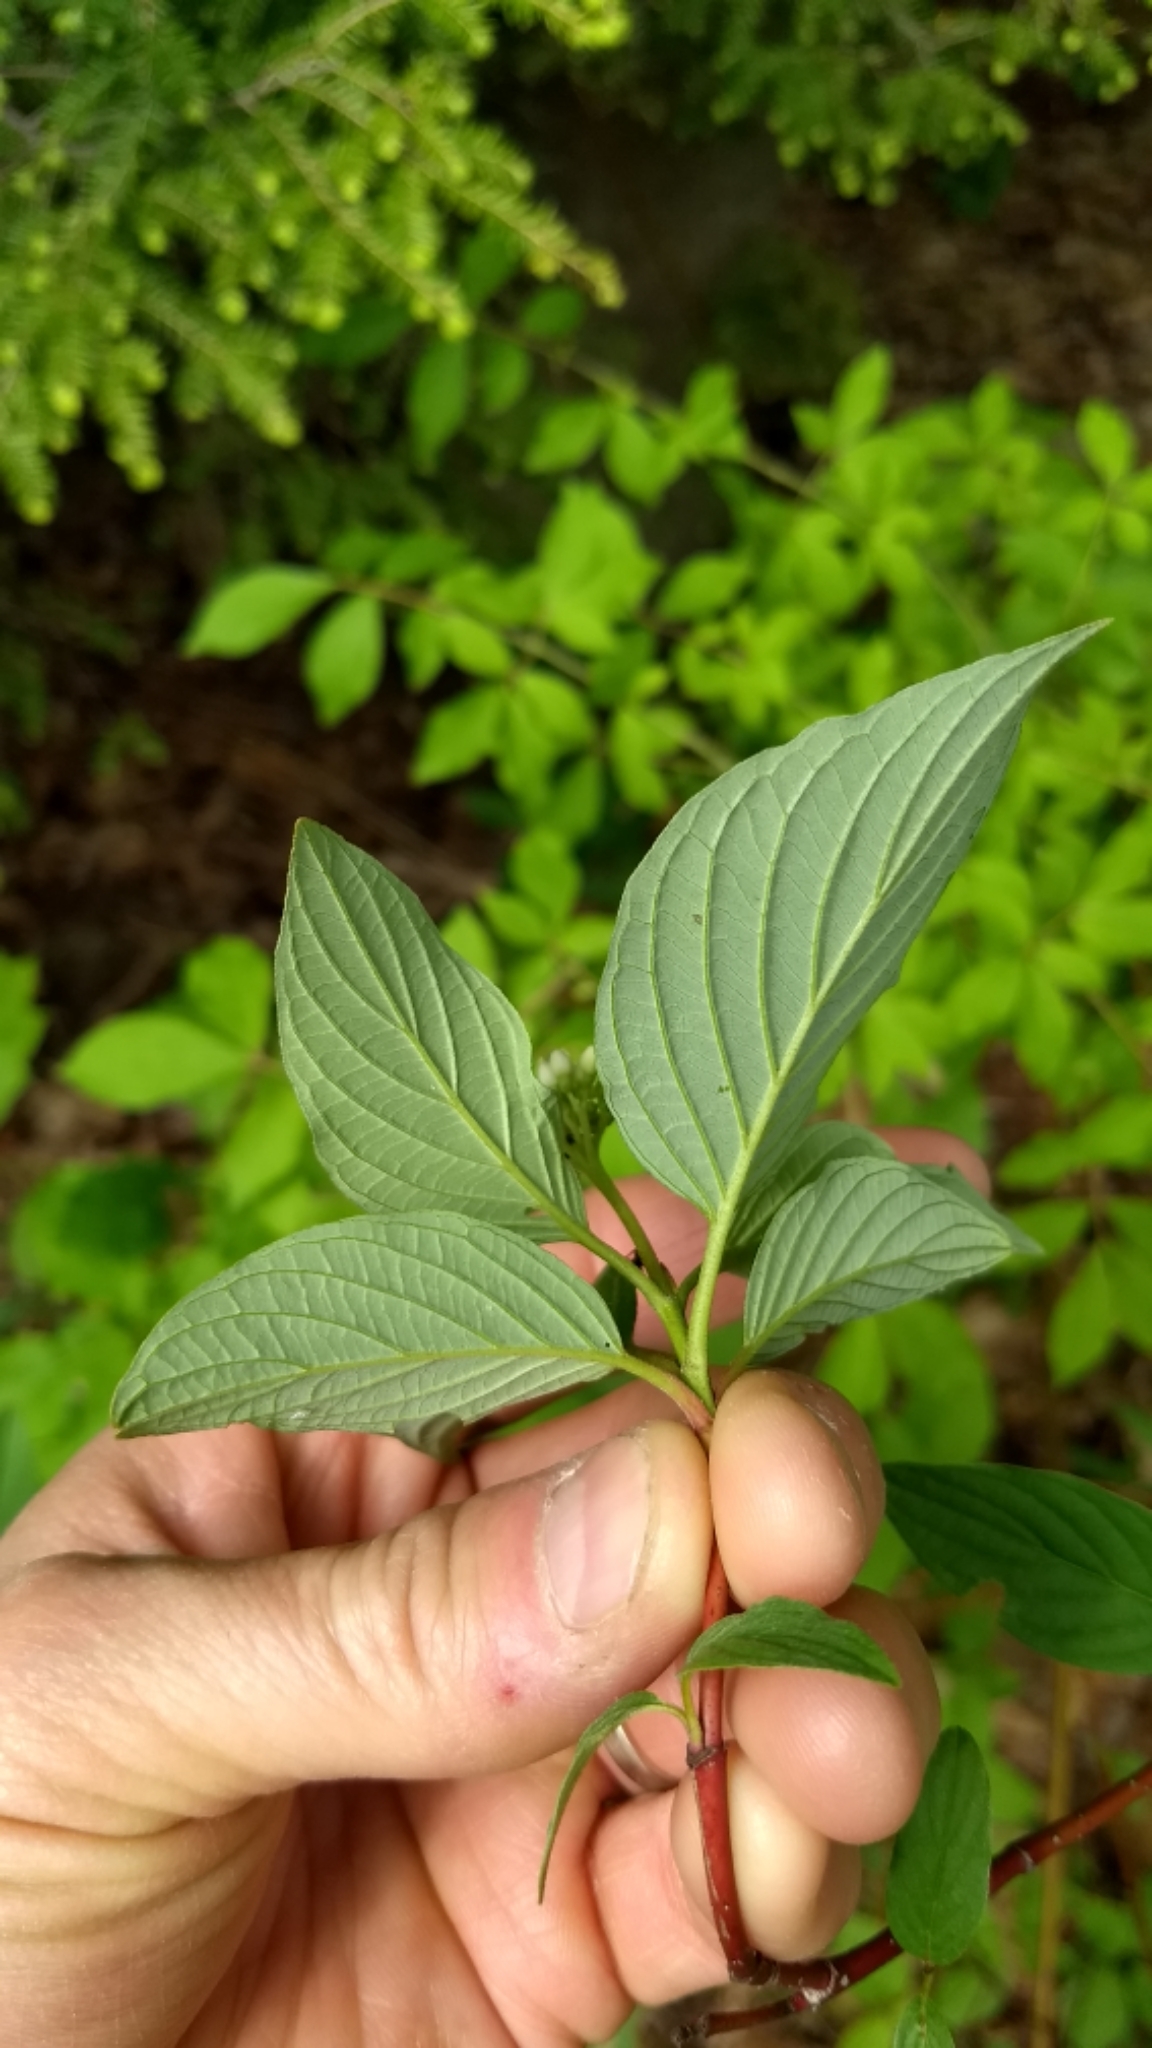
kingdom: Plantae
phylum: Tracheophyta
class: Magnoliopsida
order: Cornales
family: Cornaceae
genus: Cornus
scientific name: Cornus alternifolia
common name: Pagoda dogwood
